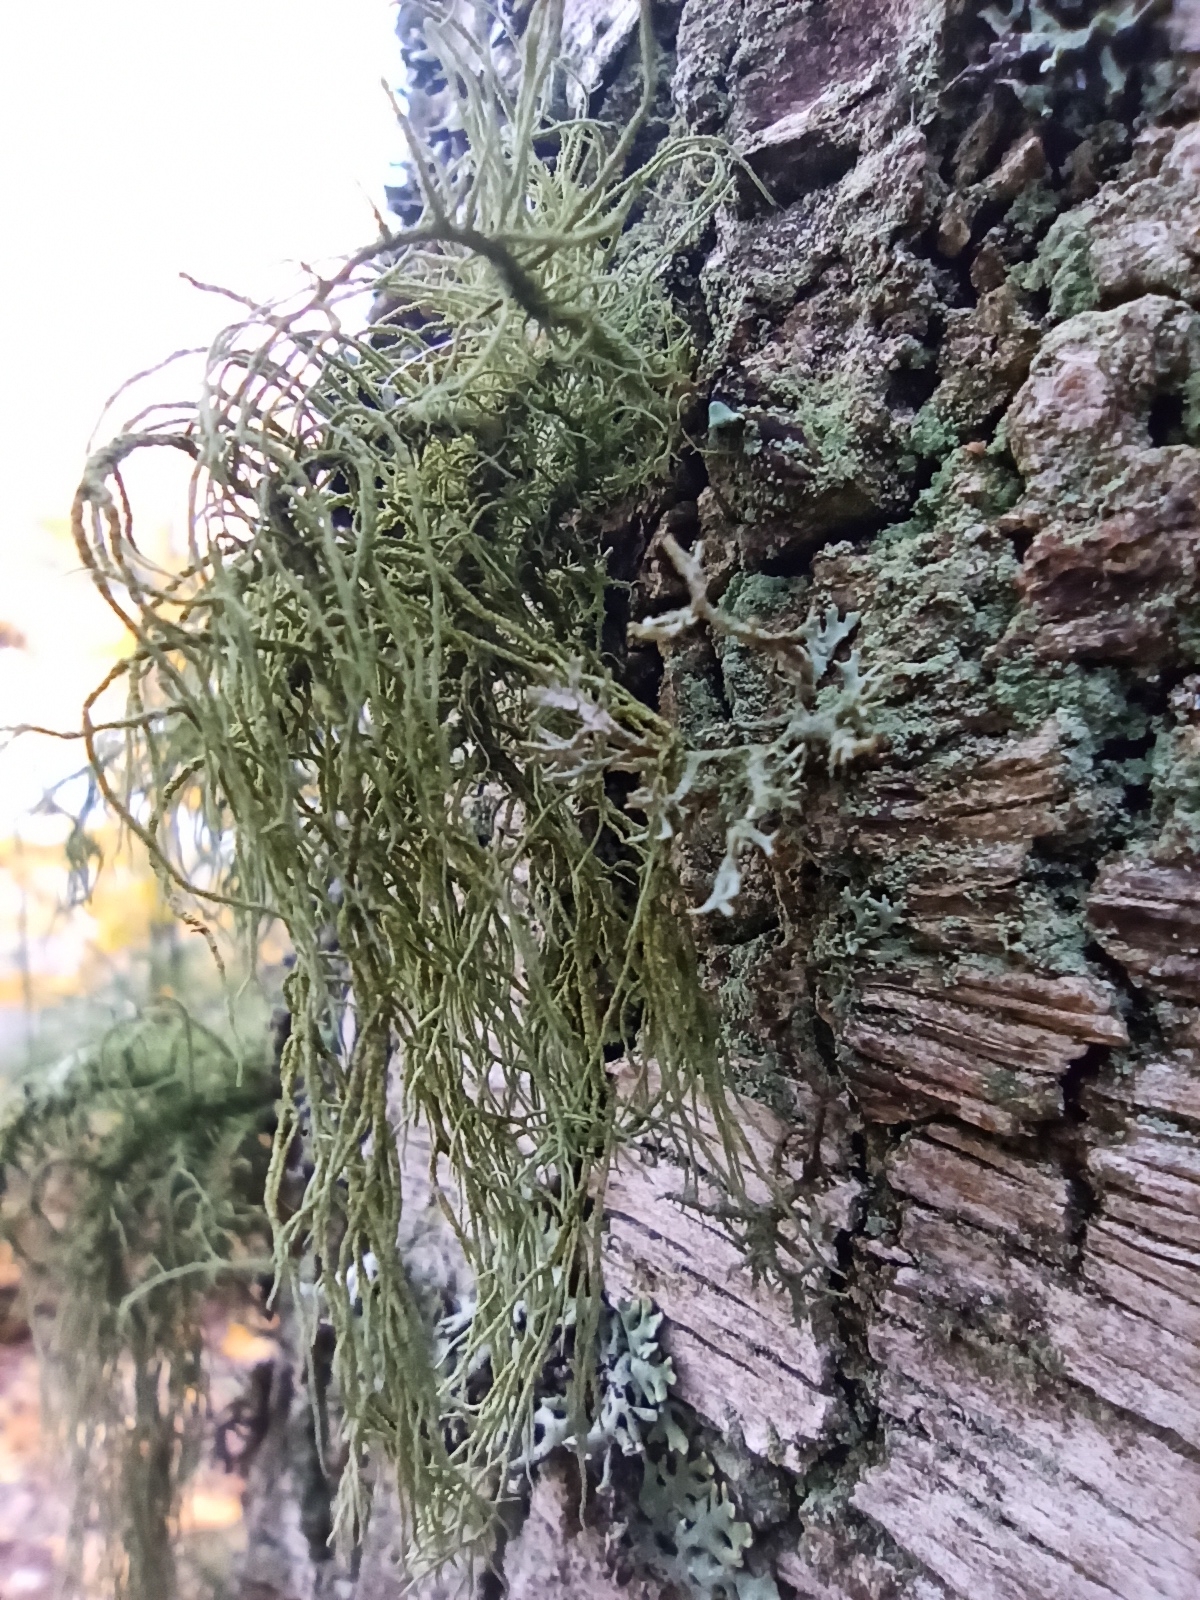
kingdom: Fungi
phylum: Ascomycota
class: Lecanoromycetes
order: Lecanorales
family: Parmeliaceae
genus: Usnea
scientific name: Usnea hirta
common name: Bristly beard lichen
